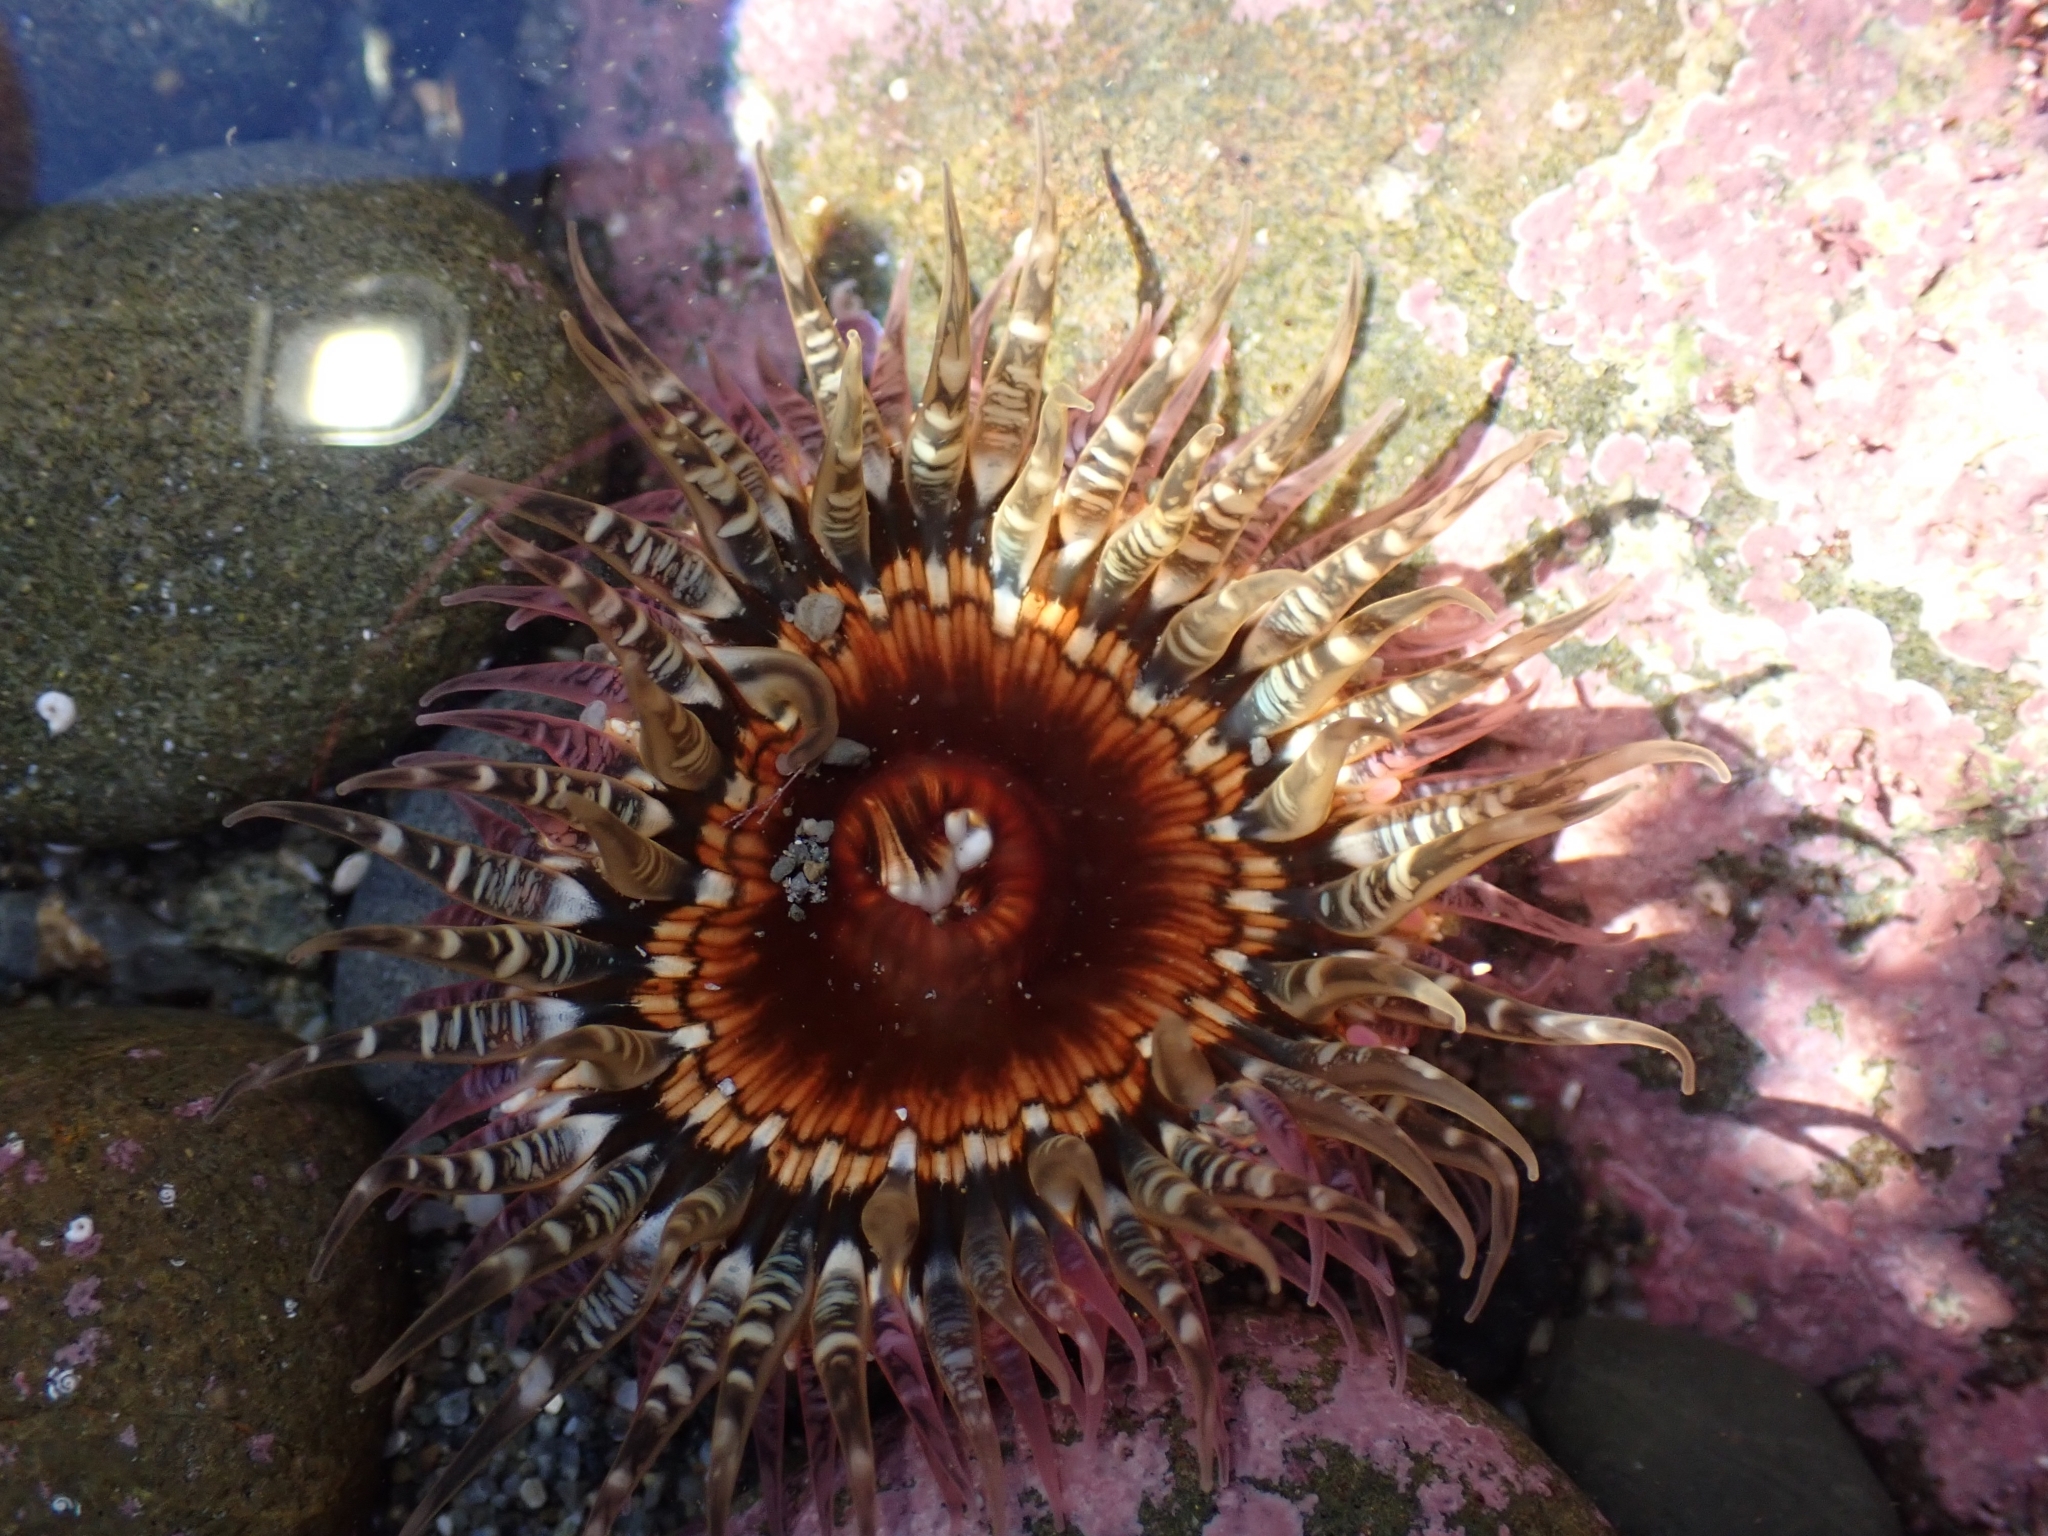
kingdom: Animalia
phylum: Cnidaria
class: Anthozoa
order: Actiniaria
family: Actiniidae
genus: Oulactis
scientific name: Oulactis muscosa
